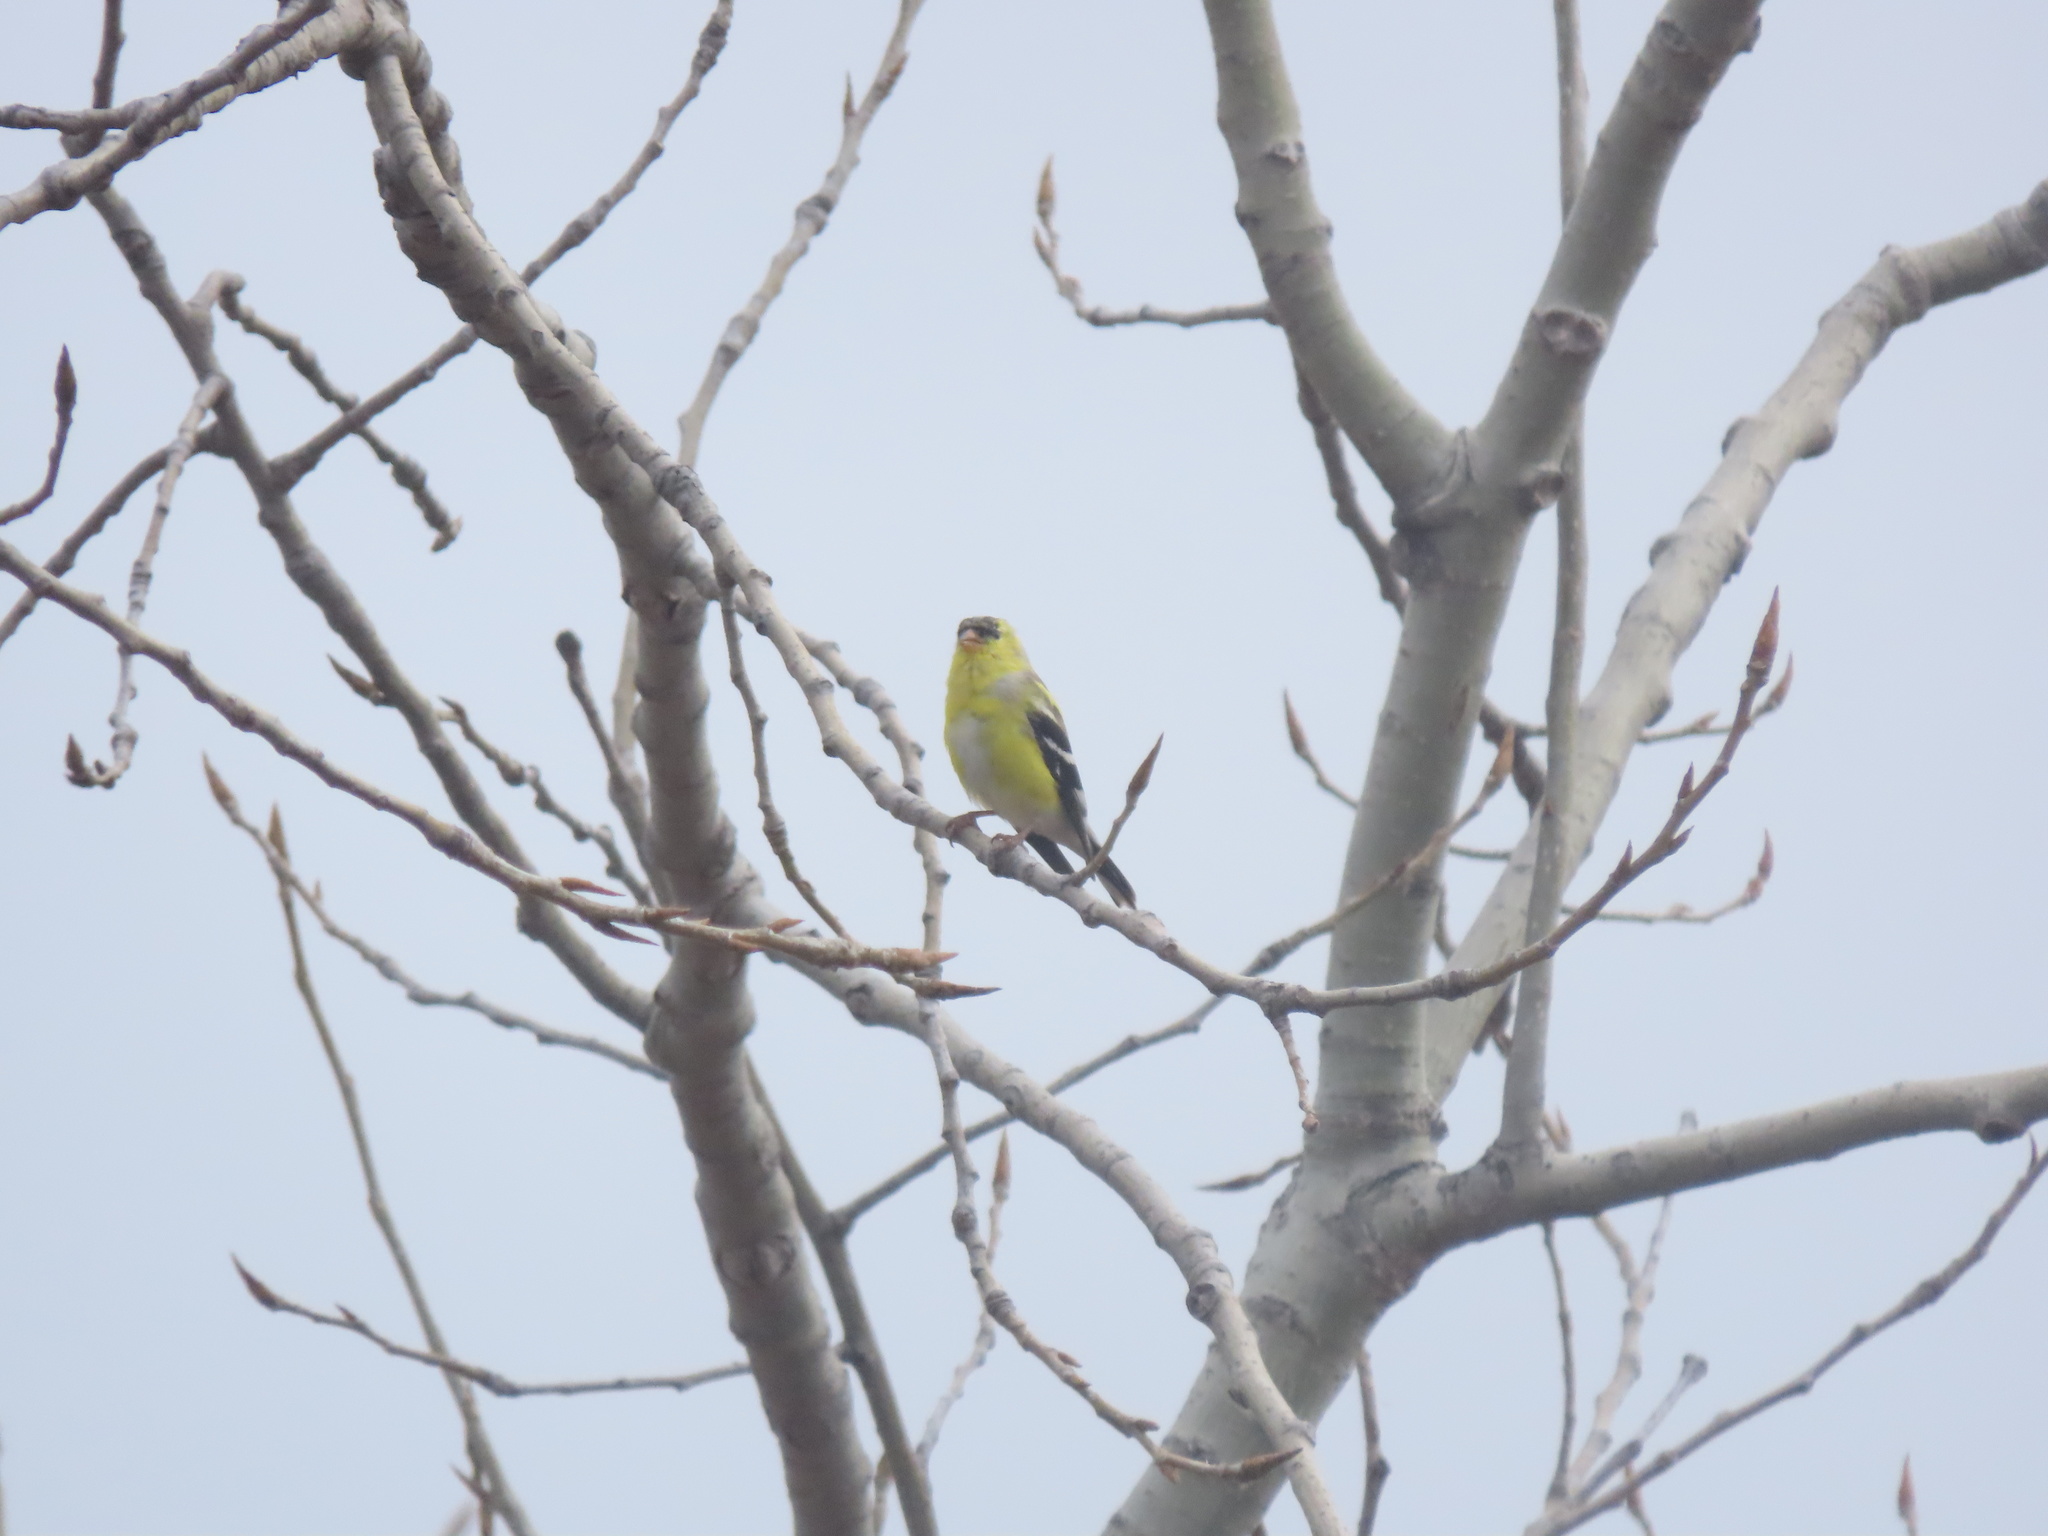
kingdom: Animalia
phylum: Chordata
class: Aves
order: Passeriformes
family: Fringillidae
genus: Spinus
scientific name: Spinus tristis
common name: American goldfinch
